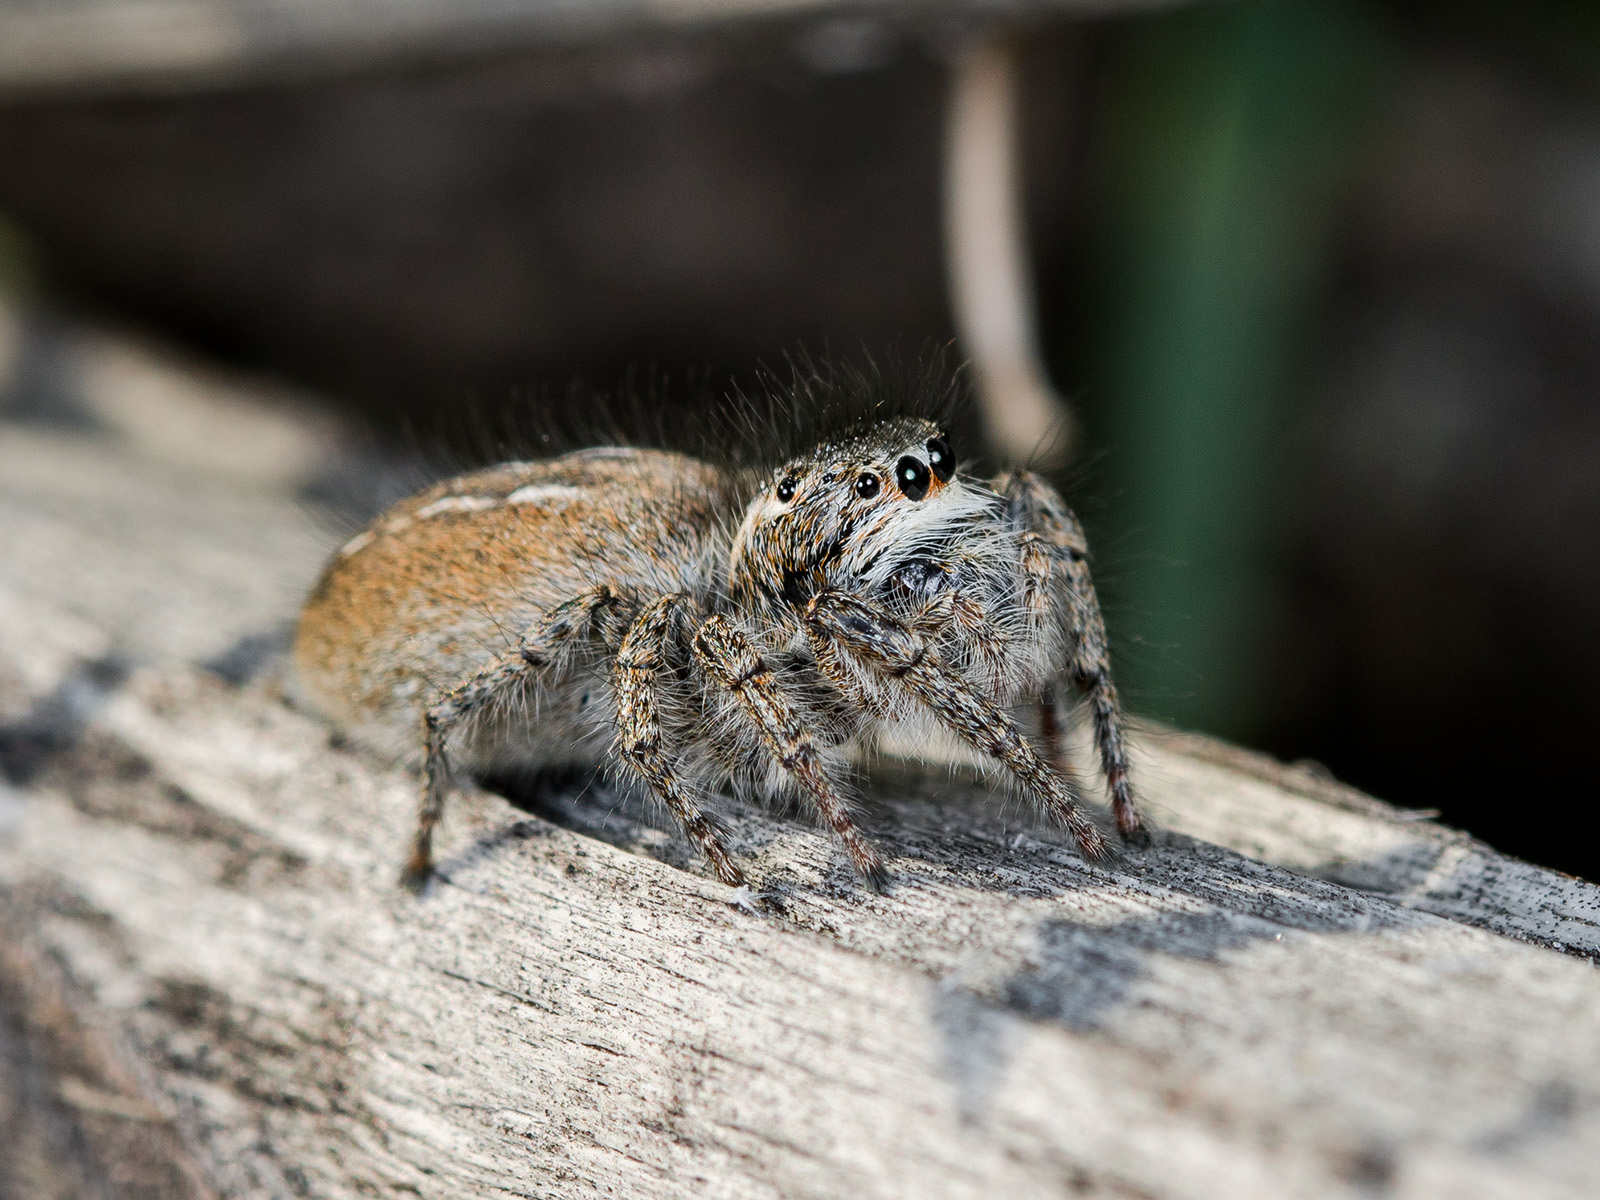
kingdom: Animalia
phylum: Arthropoda
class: Arachnida
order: Araneae
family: Salticidae
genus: Philaeus
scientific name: Philaeus chrysops
